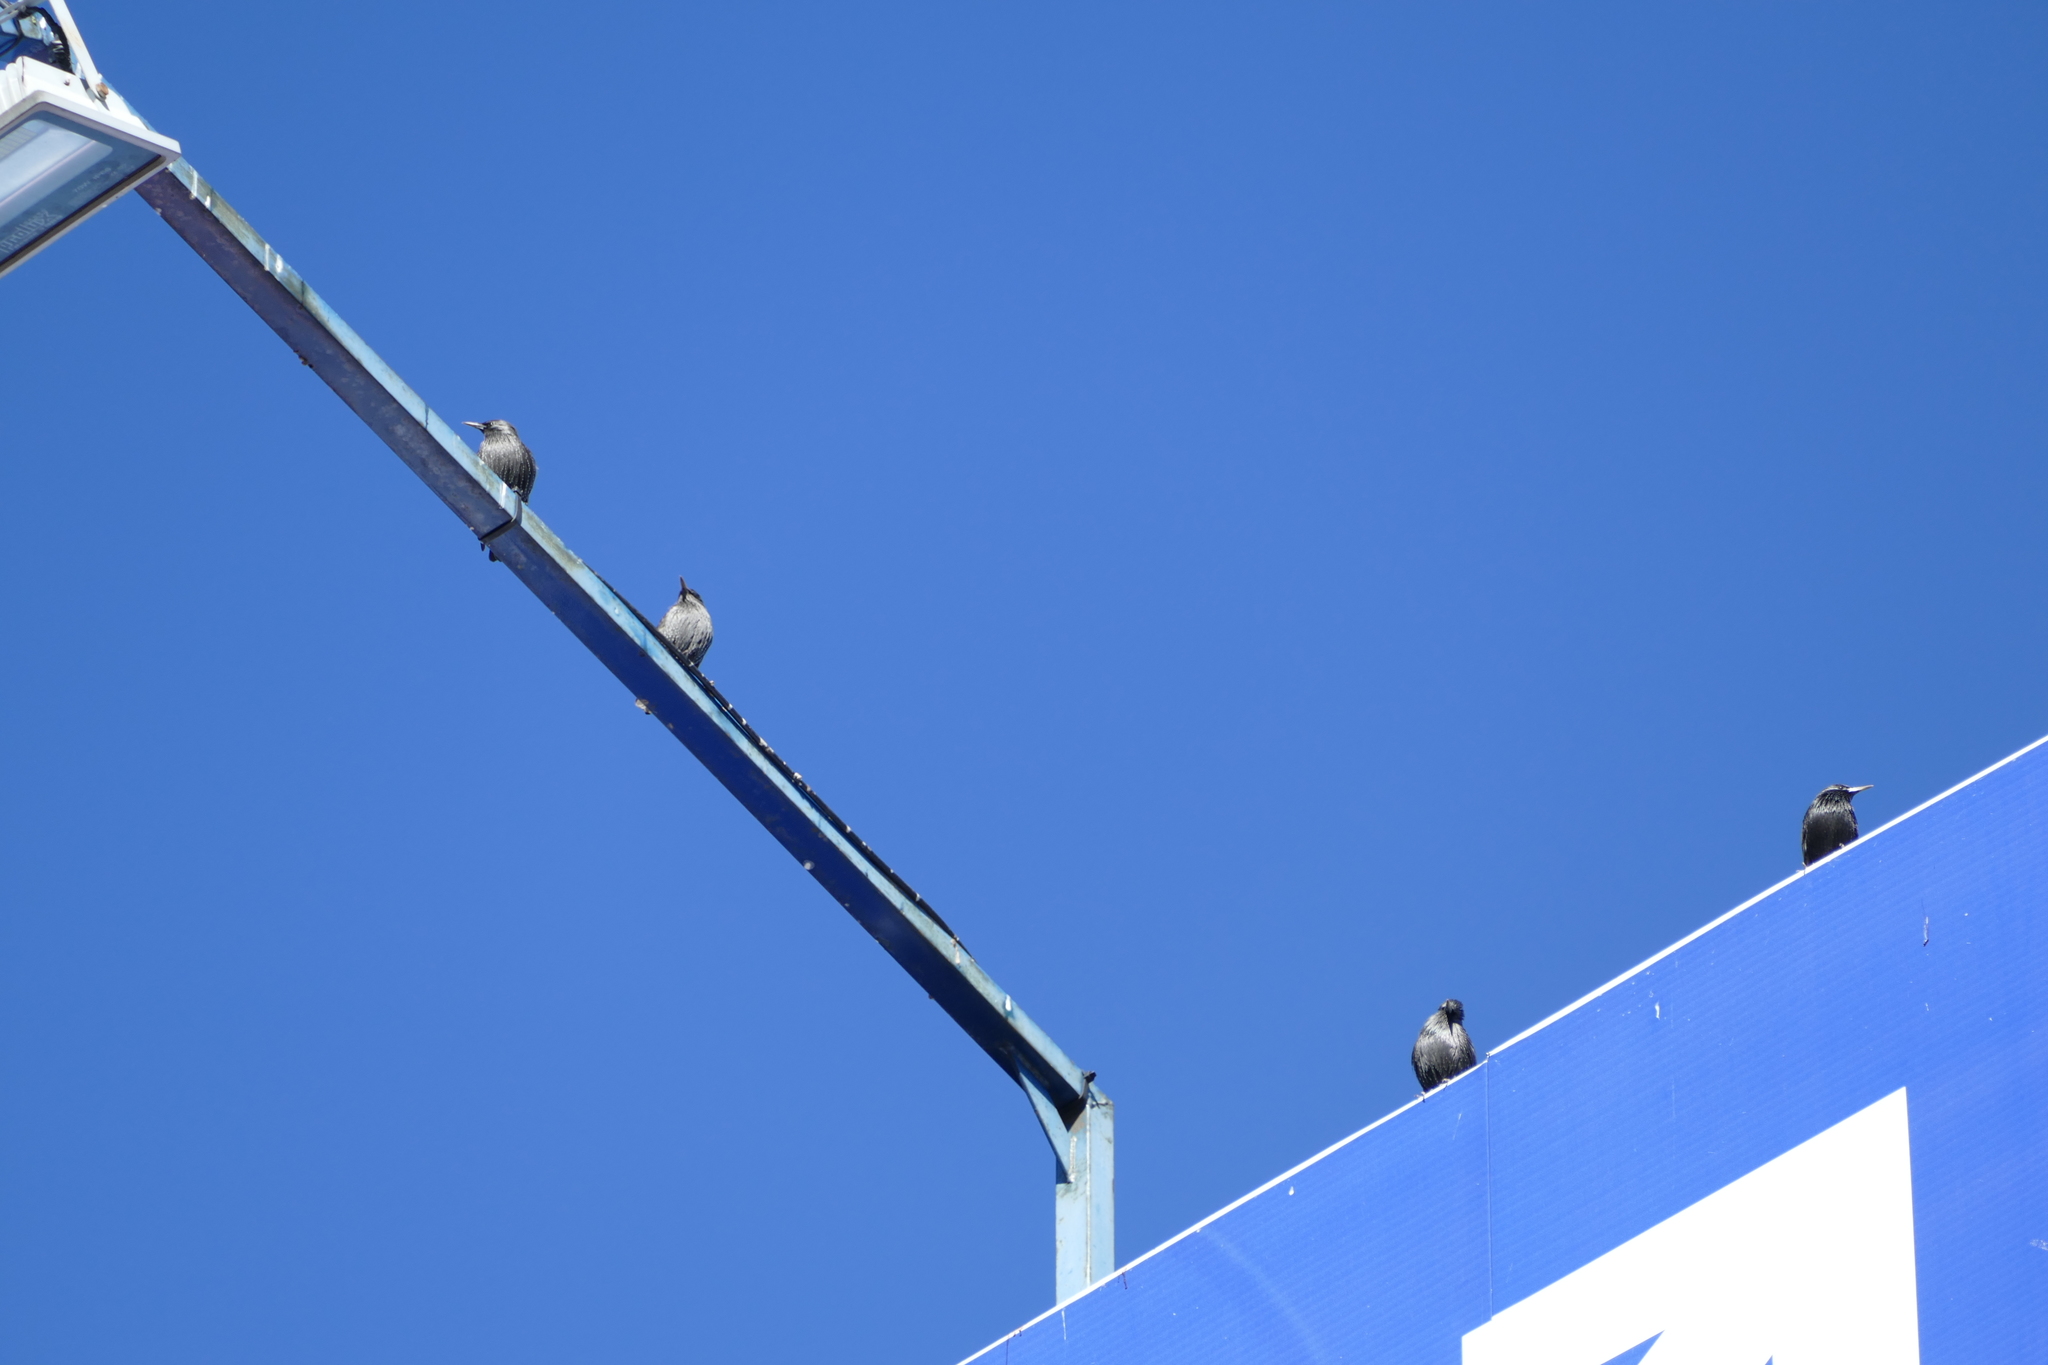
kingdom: Animalia
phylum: Chordata
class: Aves
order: Passeriformes
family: Sturnidae
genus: Sturnus
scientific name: Sturnus unicolor
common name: Spotless starling
